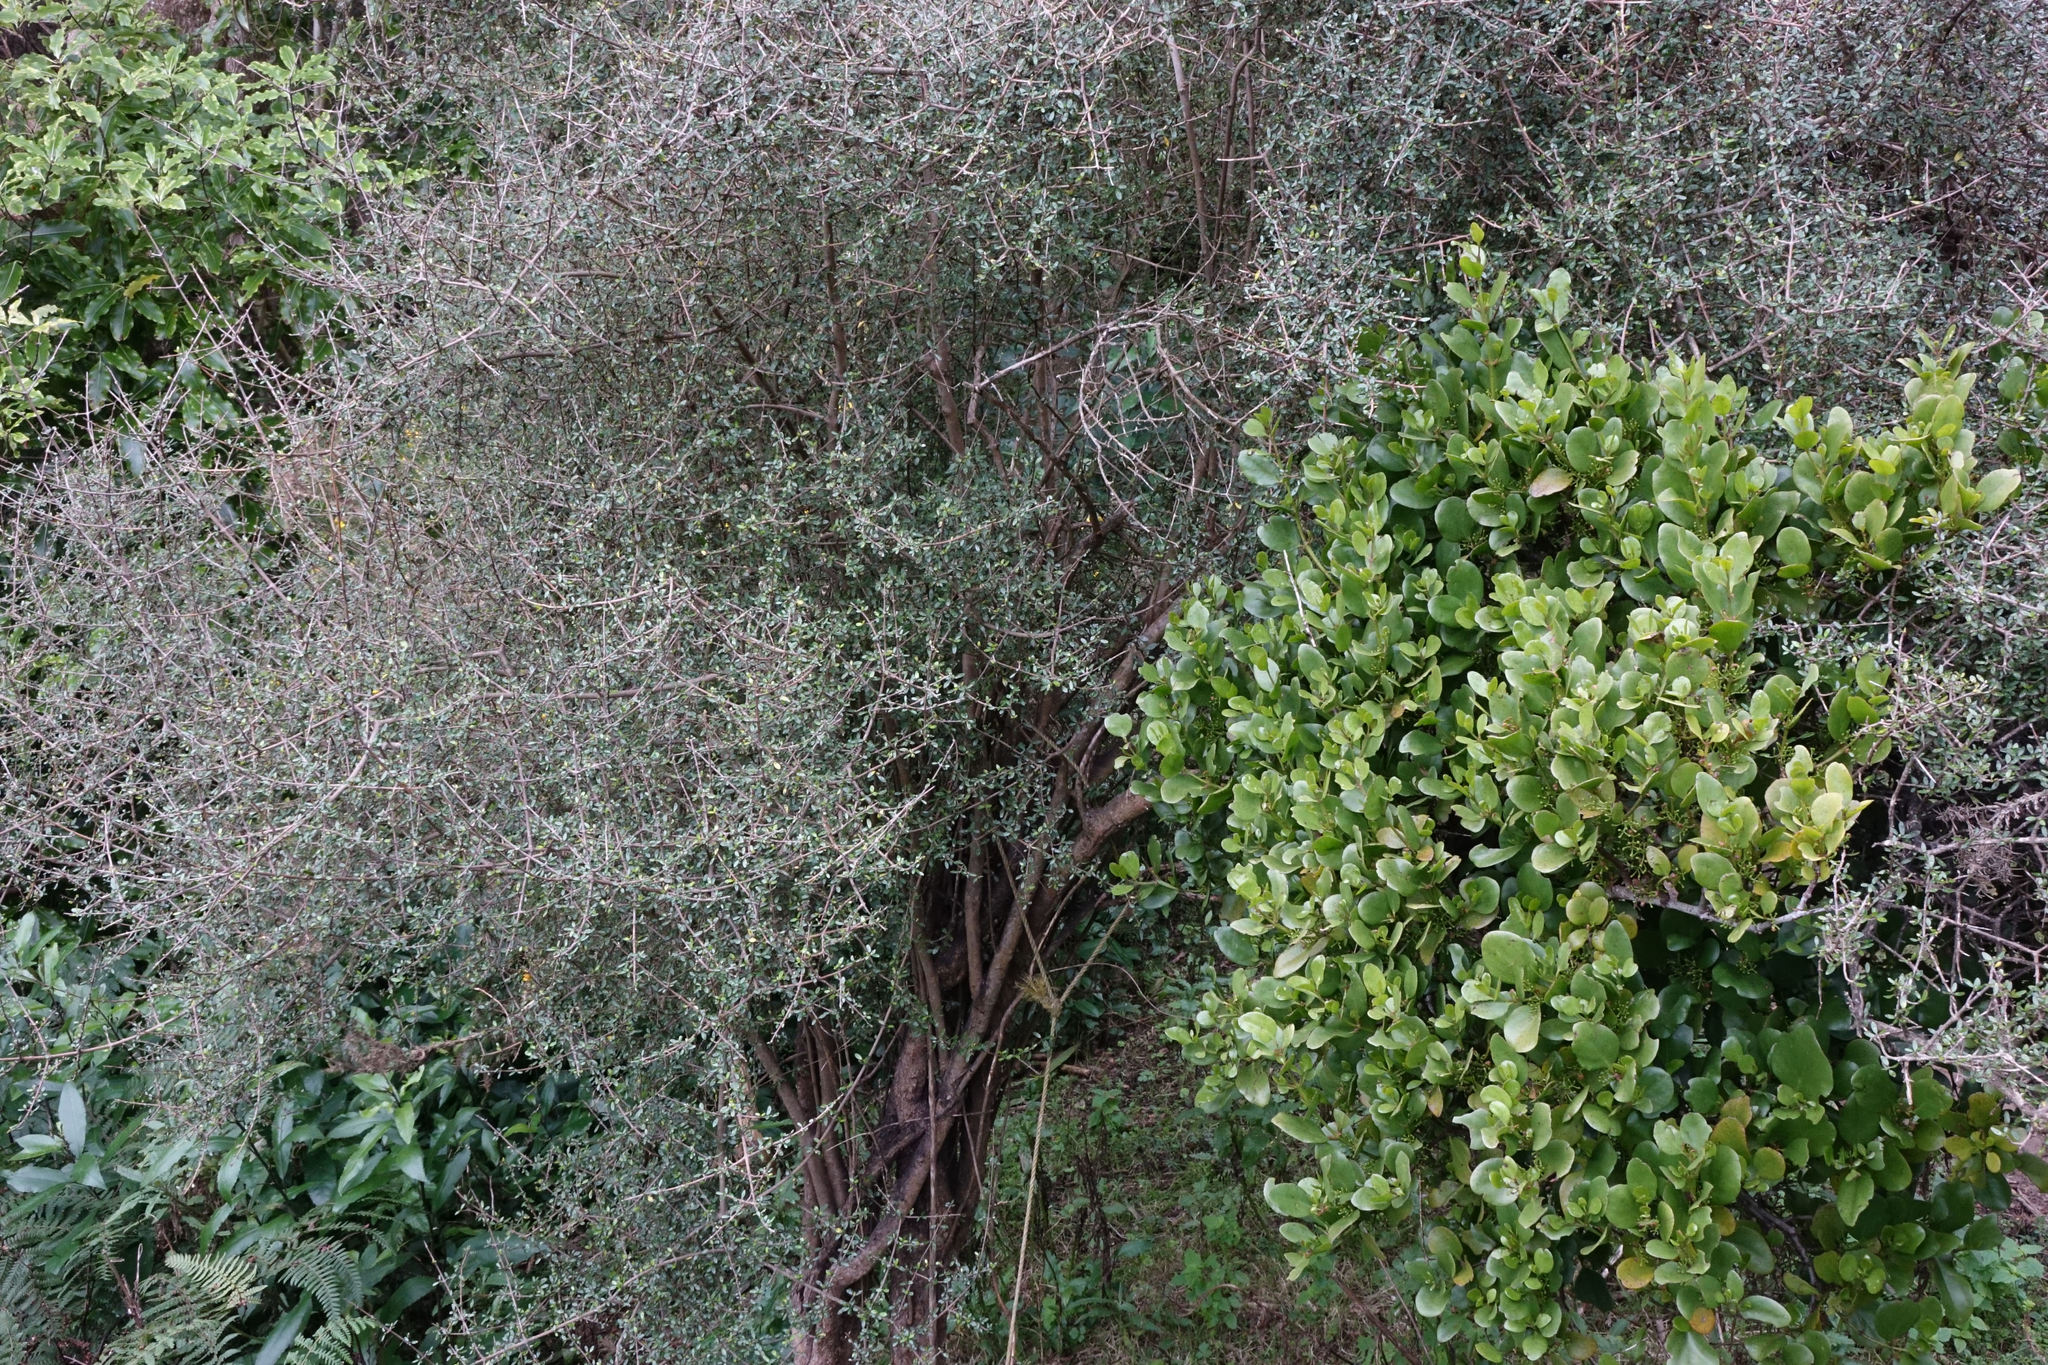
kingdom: Plantae
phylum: Tracheophyta
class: Magnoliopsida
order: Santalales
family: Loranthaceae
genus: Ileostylus
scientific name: Ileostylus micranthus
